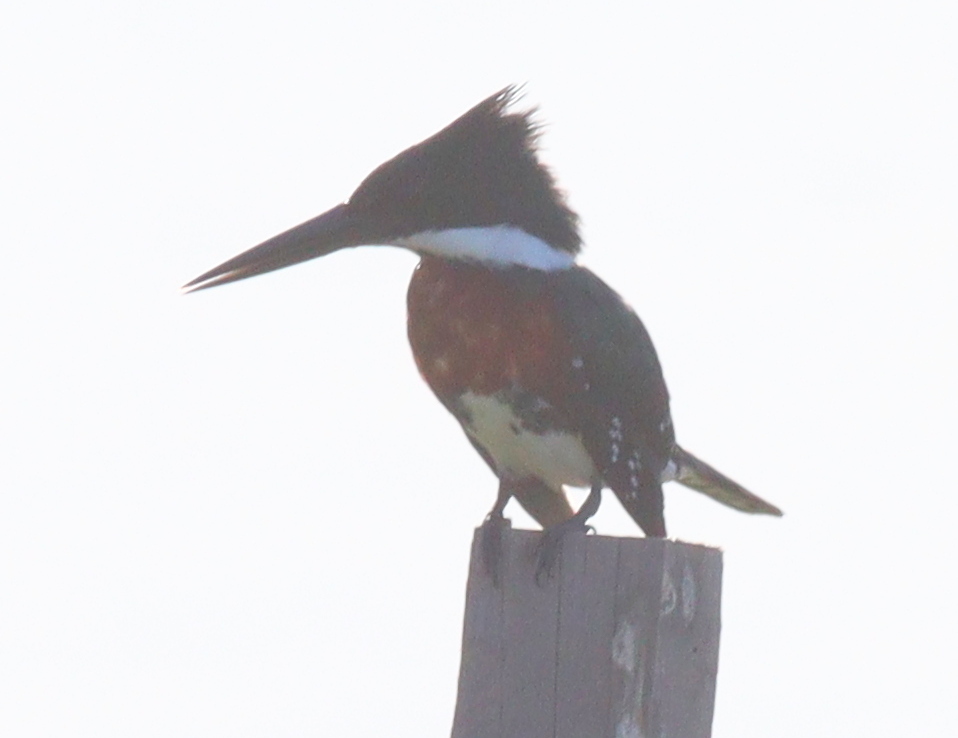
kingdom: Animalia
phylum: Chordata
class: Aves
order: Coraciiformes
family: Alcedinidae
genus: Chloroceryle
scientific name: Chloroceryle americana
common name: Green kingfisher
